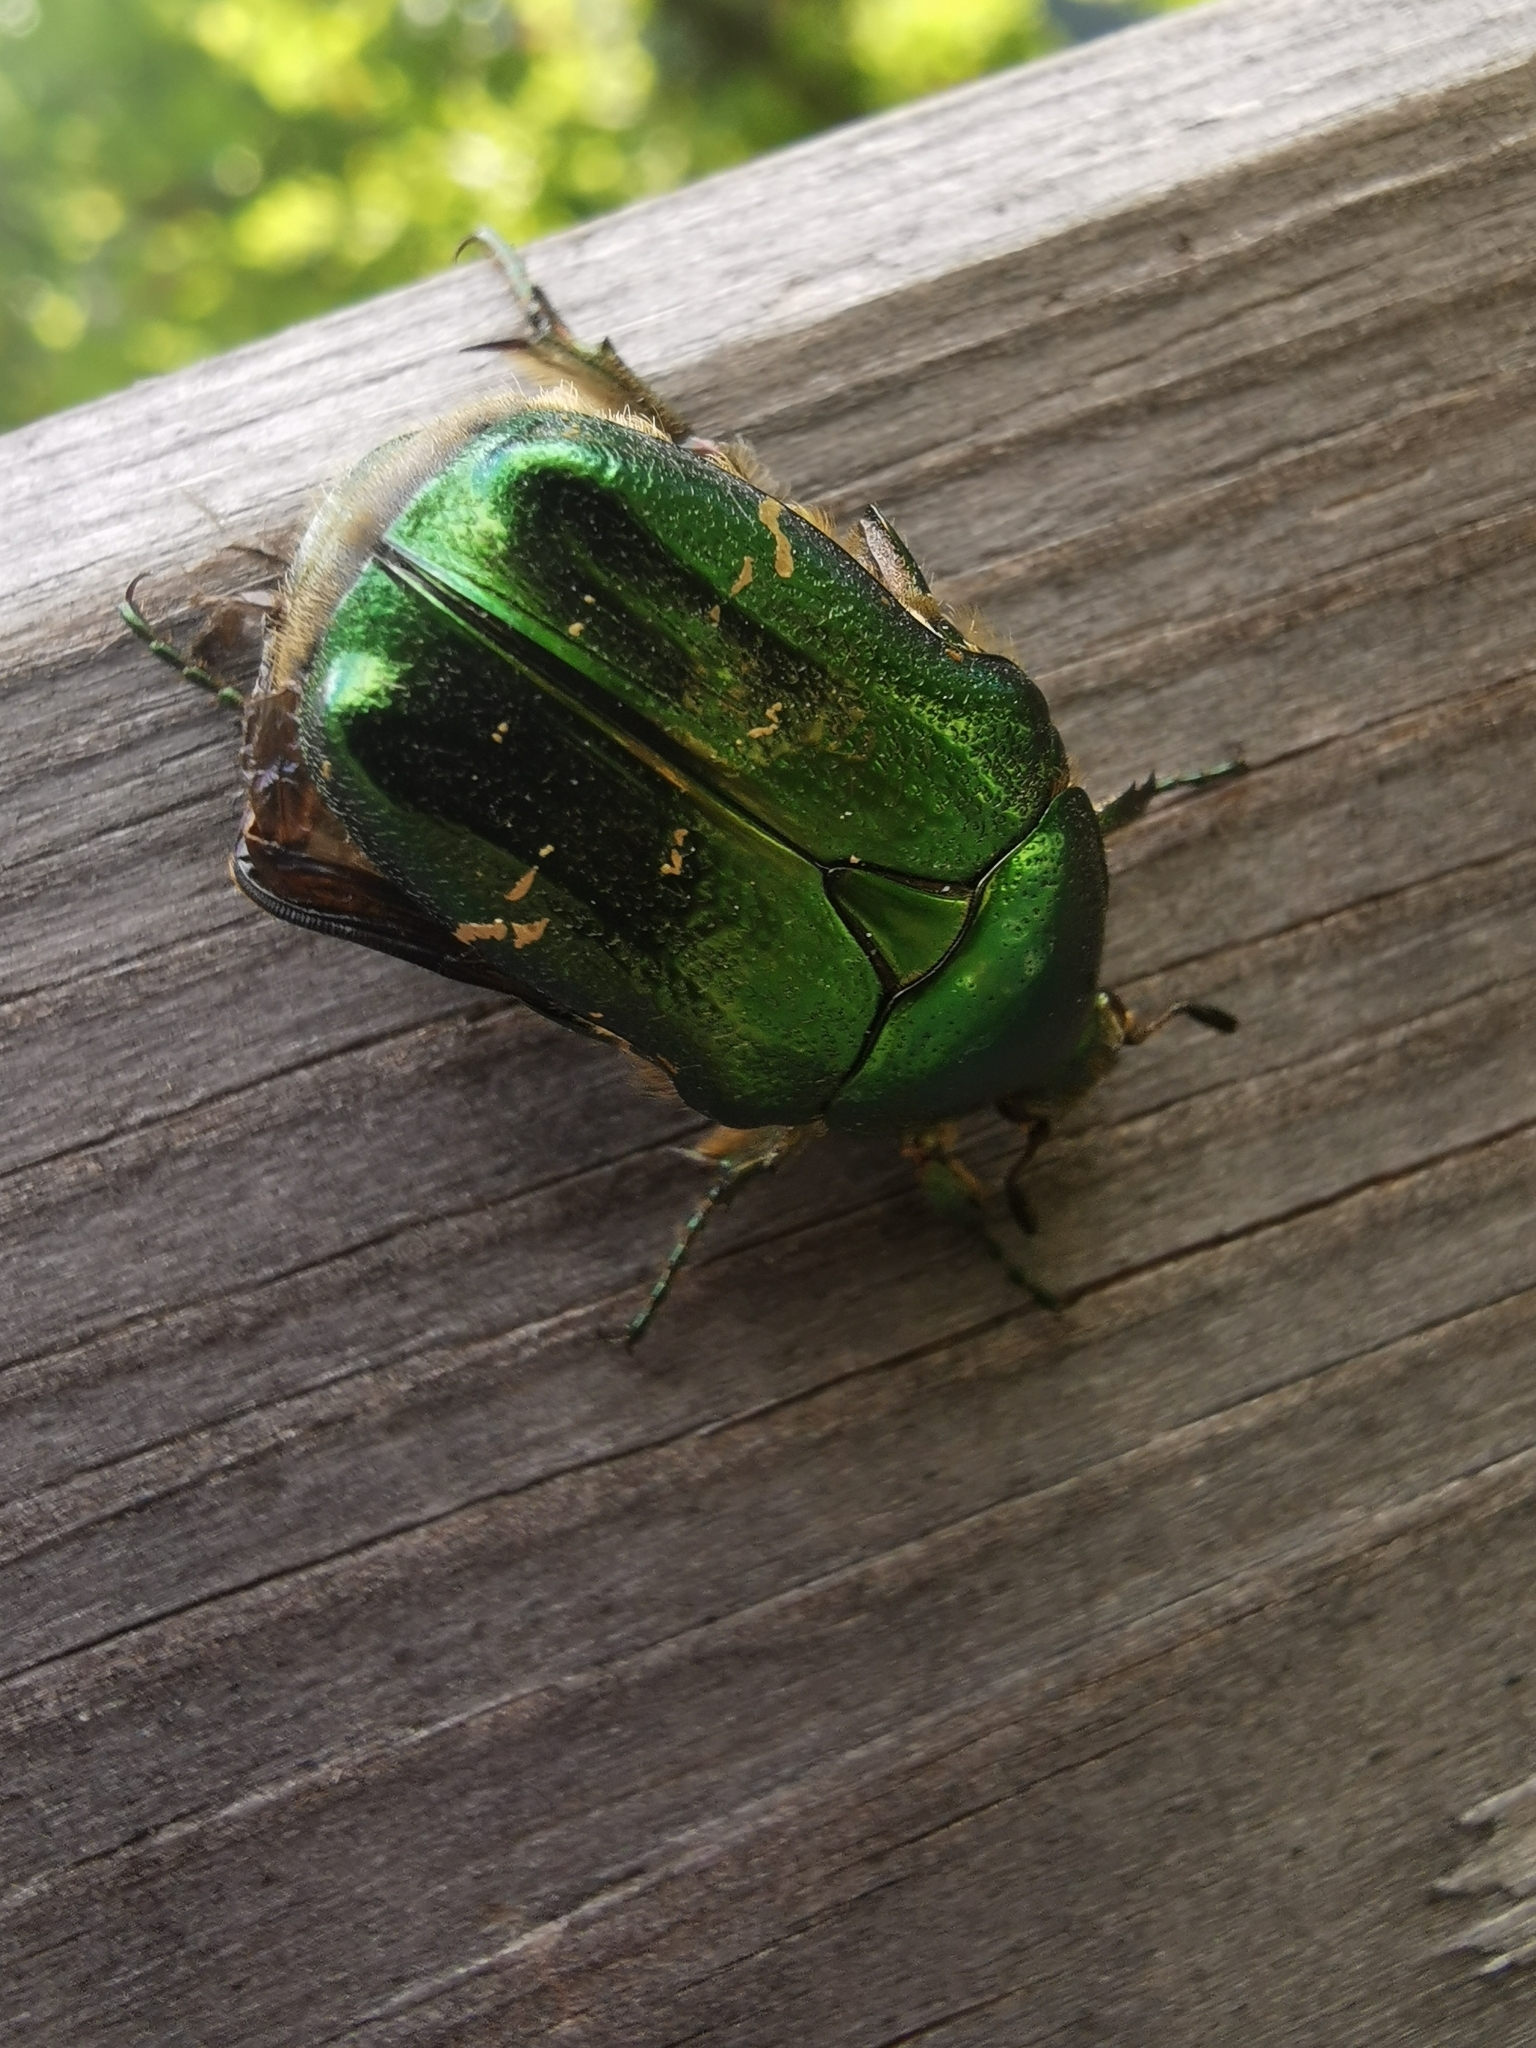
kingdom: Animalia
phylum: Arthropoda
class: Insecta
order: Coleoptera
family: Scarabaeidae
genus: Cetonia
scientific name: Cetonia aurata
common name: Rose chafer
